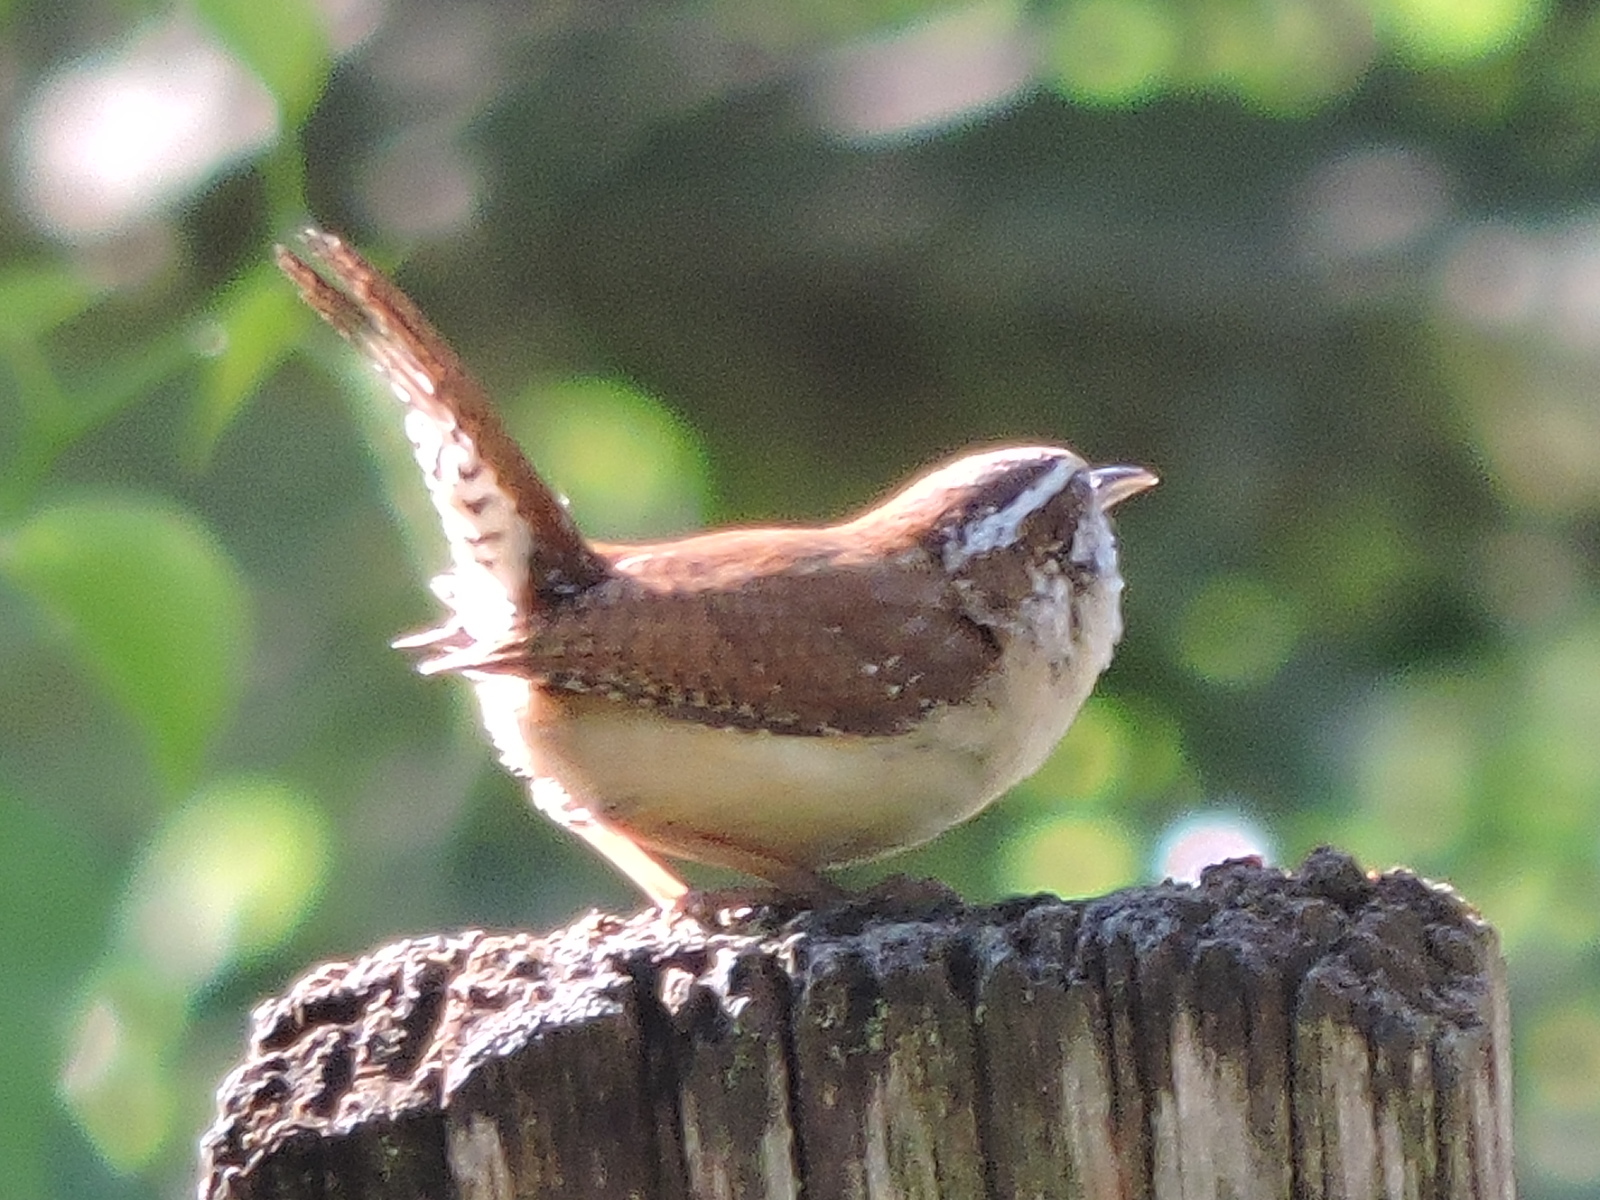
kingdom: Animalia
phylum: Chordata
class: Aves
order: Passeriformes
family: Troglodytidae
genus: Thryothorus
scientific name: Thryothorus ludovicianus
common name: Carolina wren
